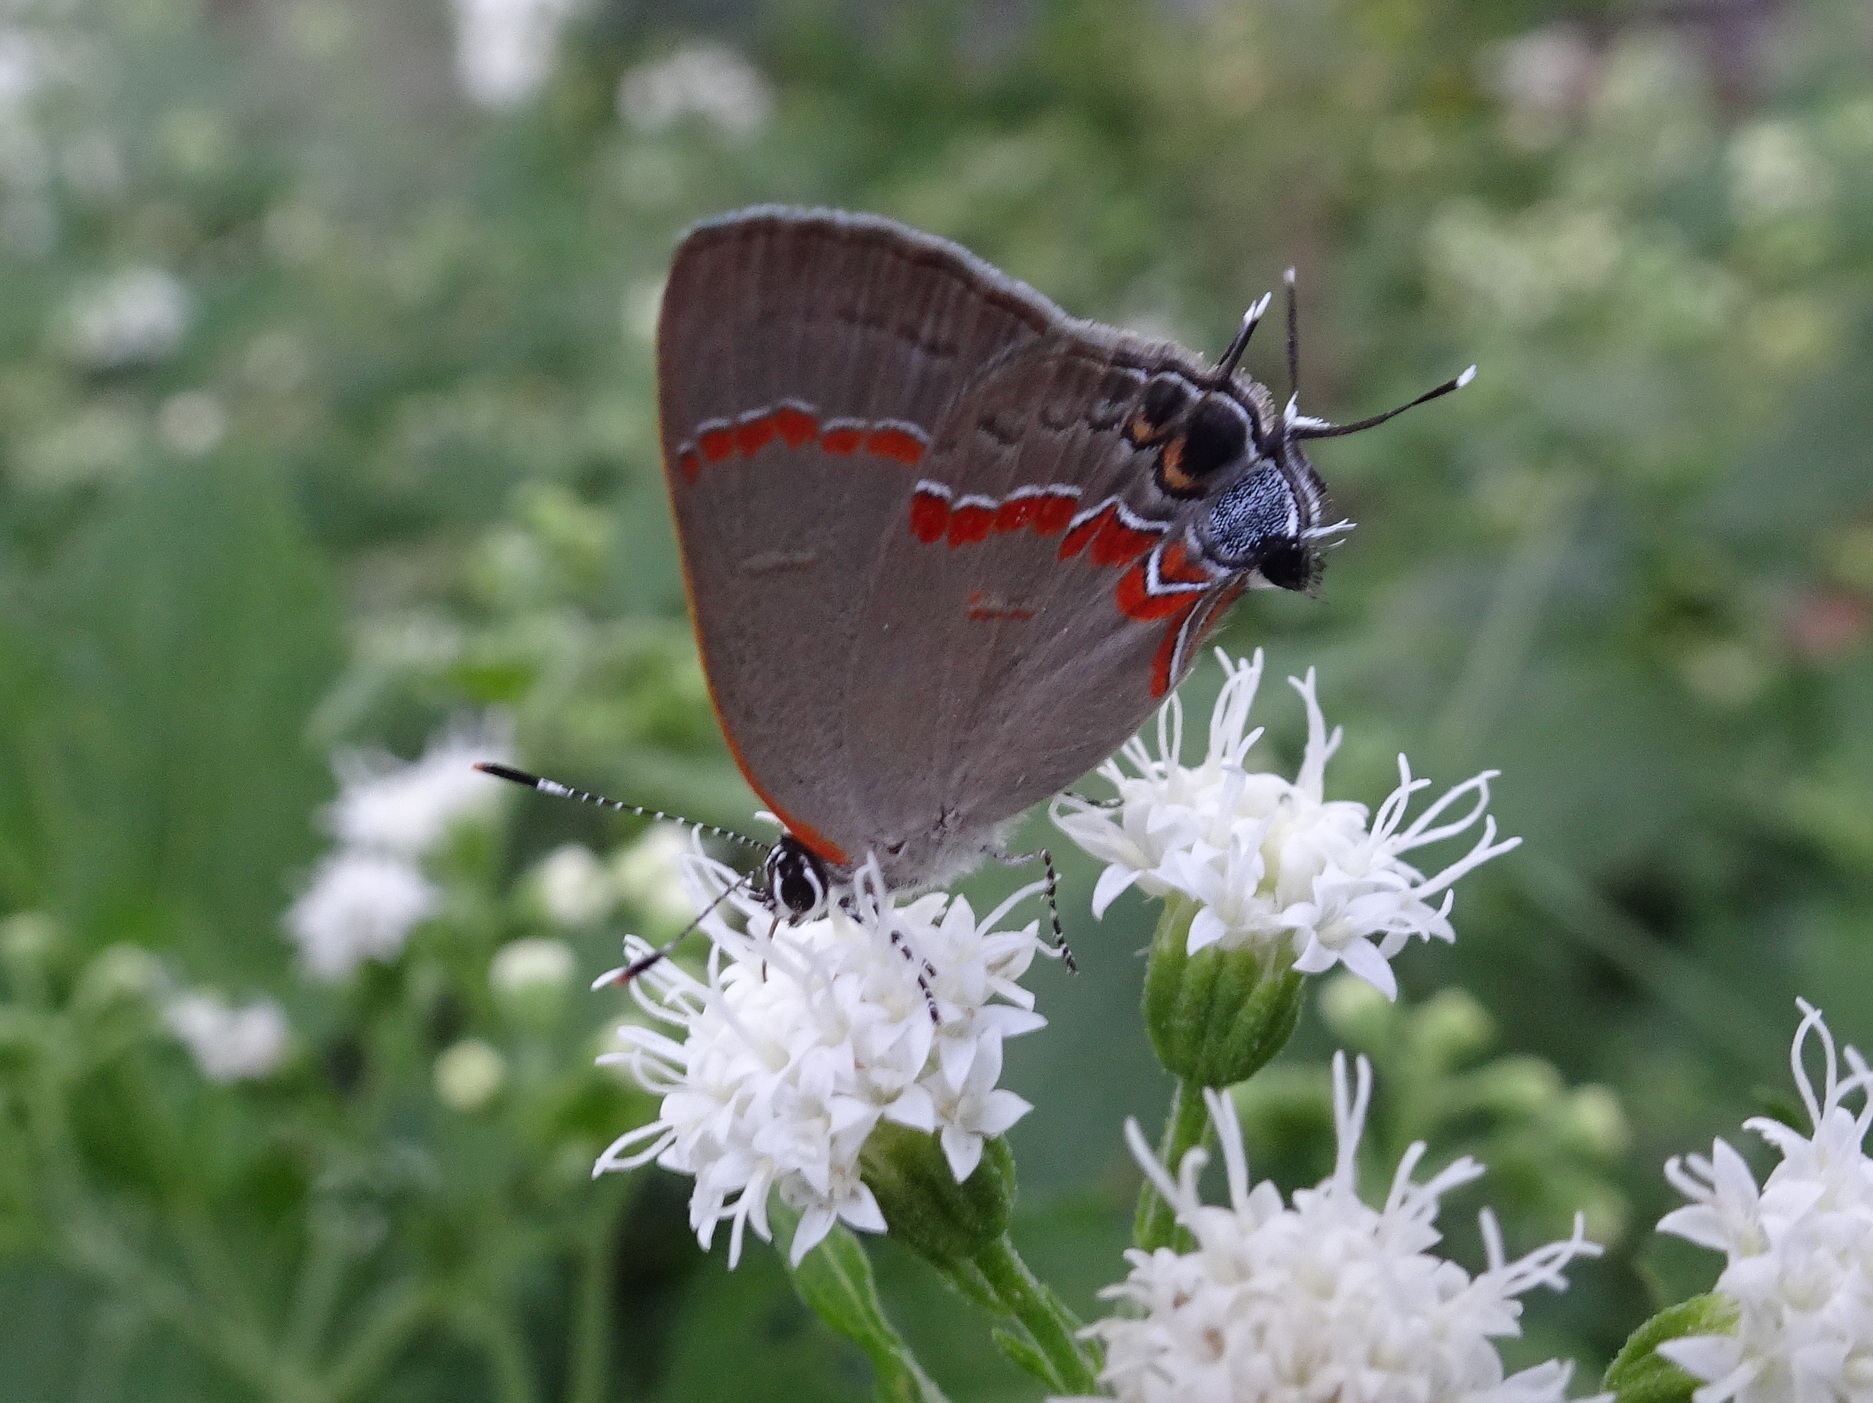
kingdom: Animalia
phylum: Arthropoda
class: Insecta
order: Lepidoptera
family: Lycaenidae
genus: Calycopis
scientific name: Calycopis cecrops
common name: Red-banded hairstreak
